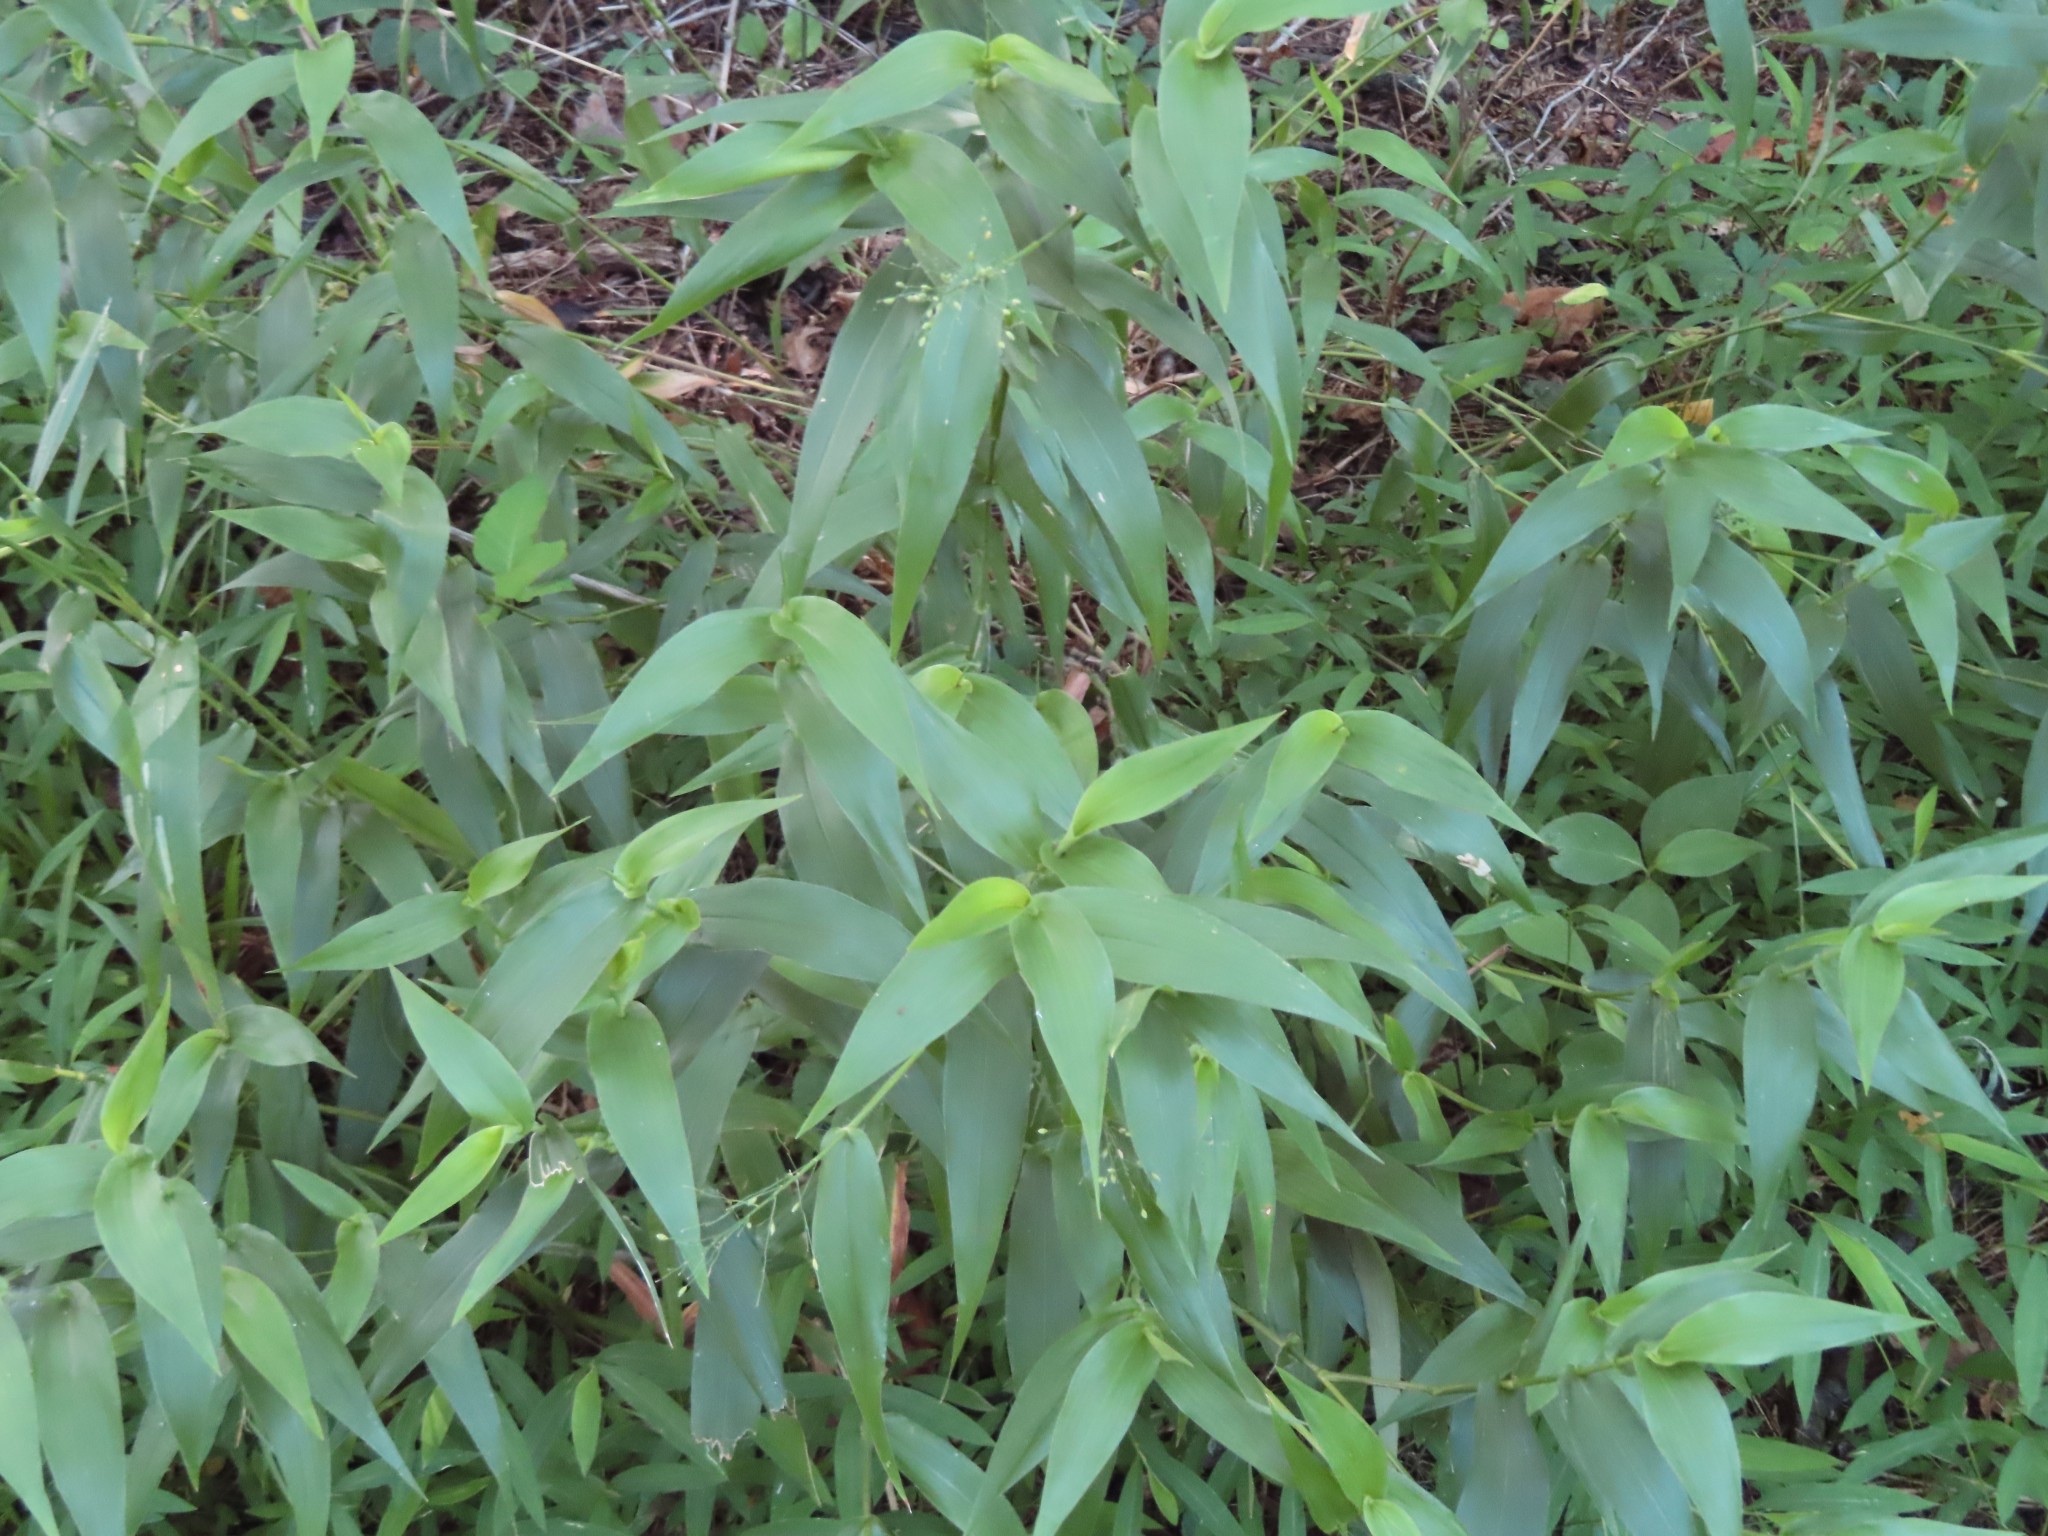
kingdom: Plantae
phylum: Tracheophyta
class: Liliopsida
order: Poales
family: Poaceae
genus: Dichanthelium
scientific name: Dichanthelium clandestinum
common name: Deer-tongue grass
